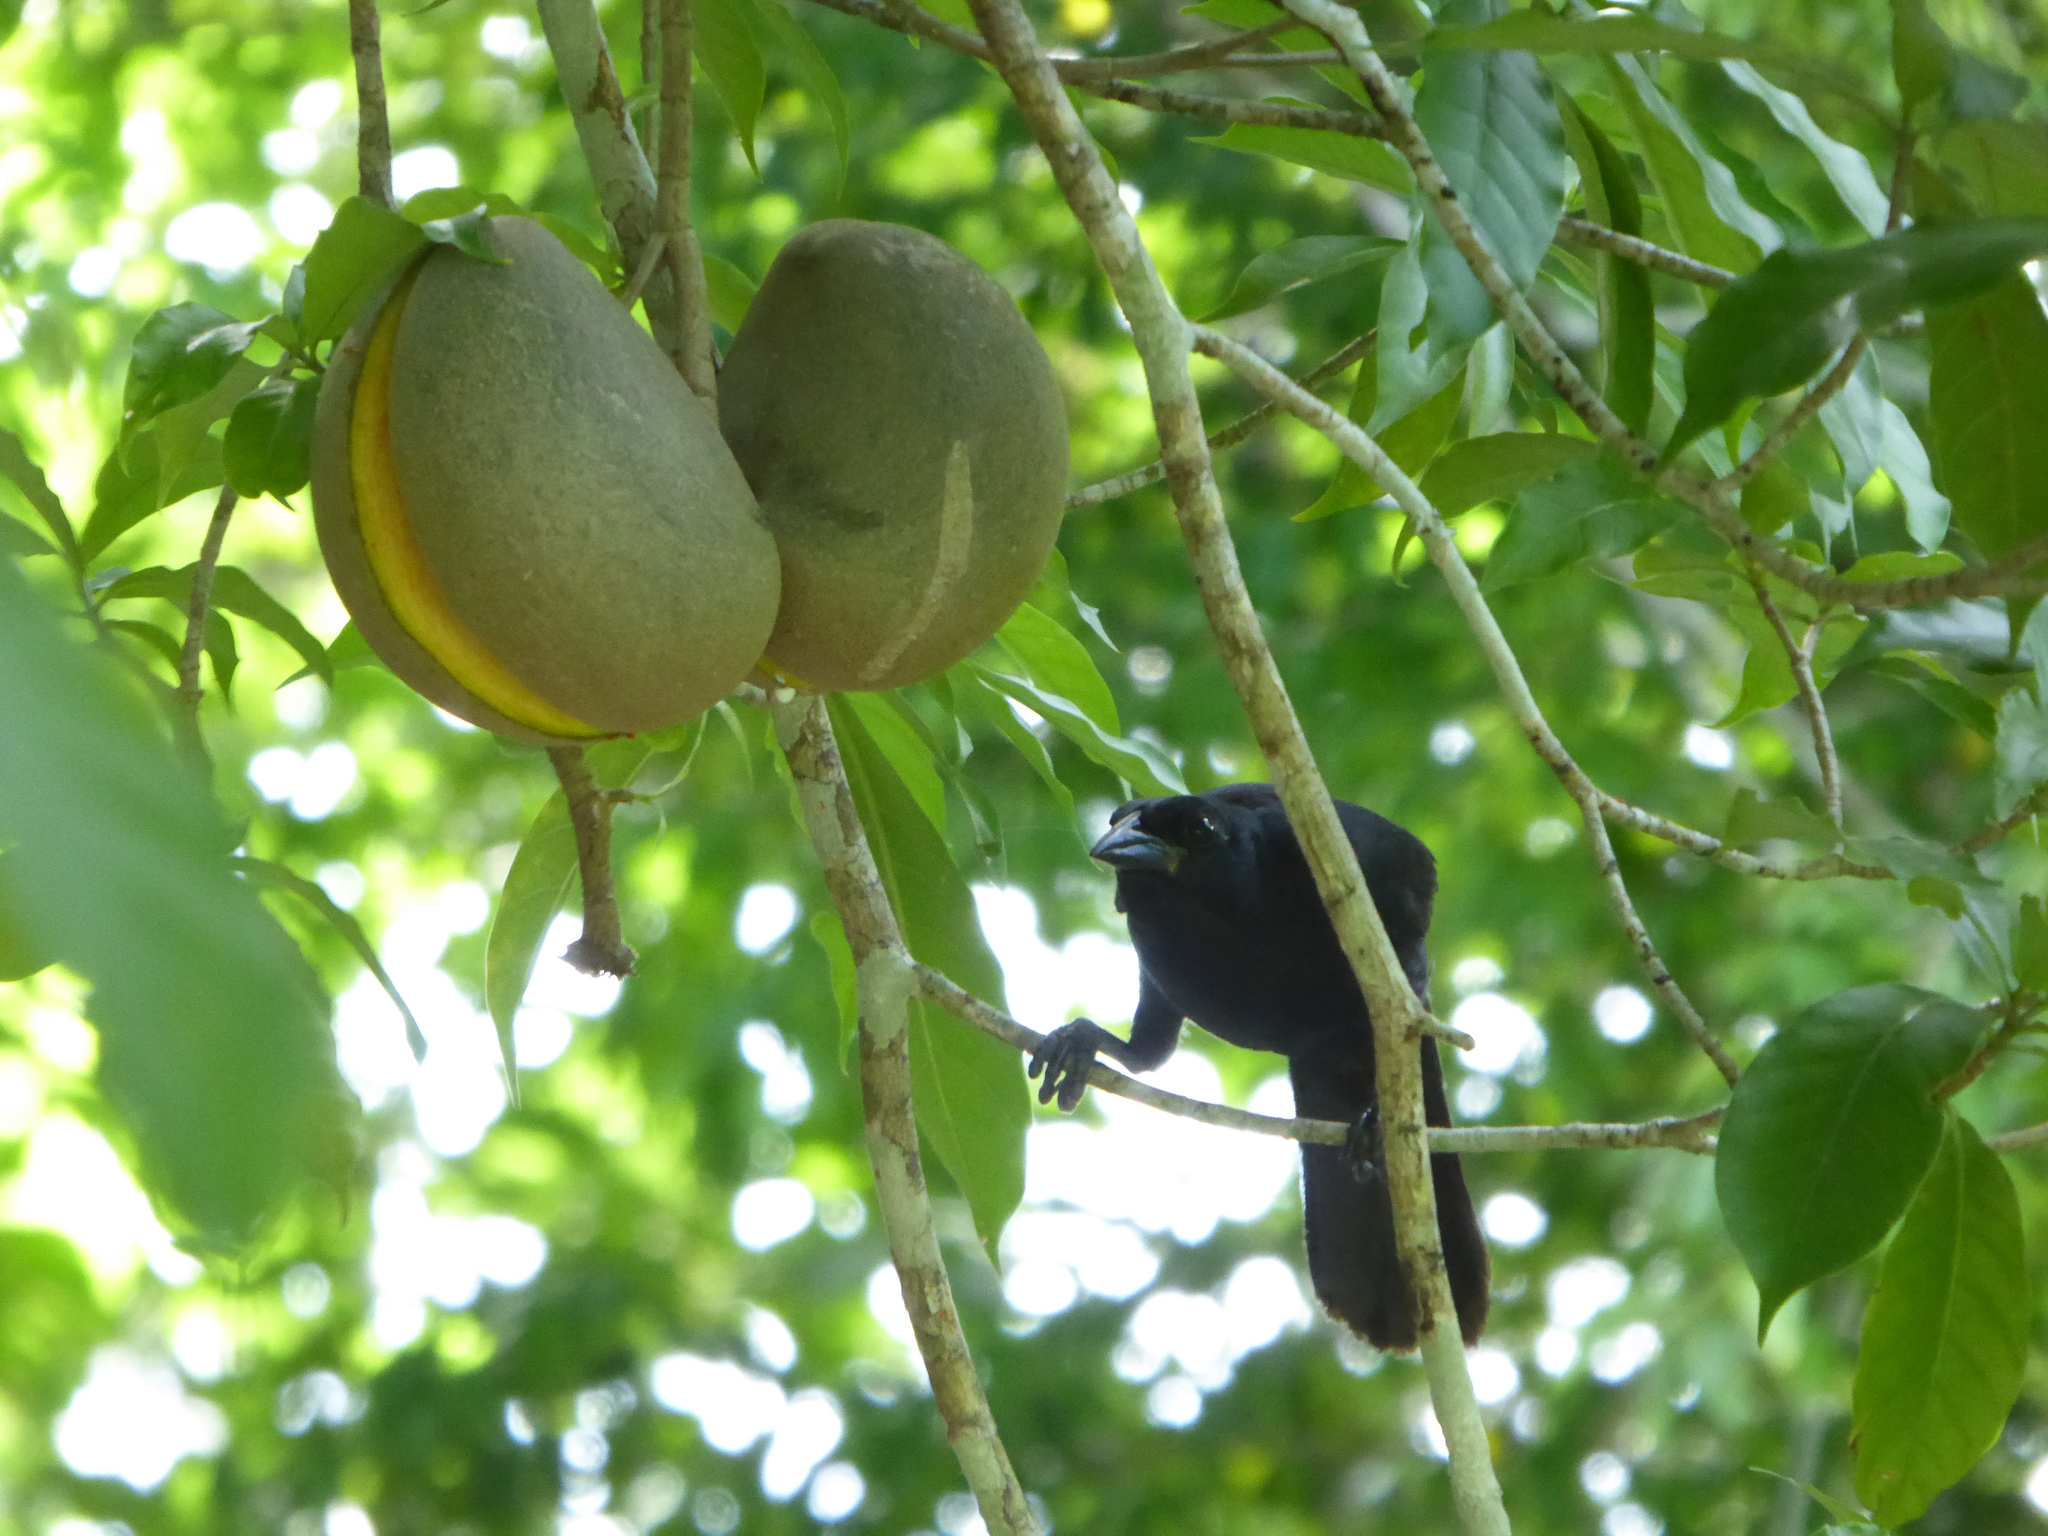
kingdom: Animalia
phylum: Chordata
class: Aves
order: Passeriformes
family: Icteridae
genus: Dives
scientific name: Dives dives
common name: Melodious blackbird
